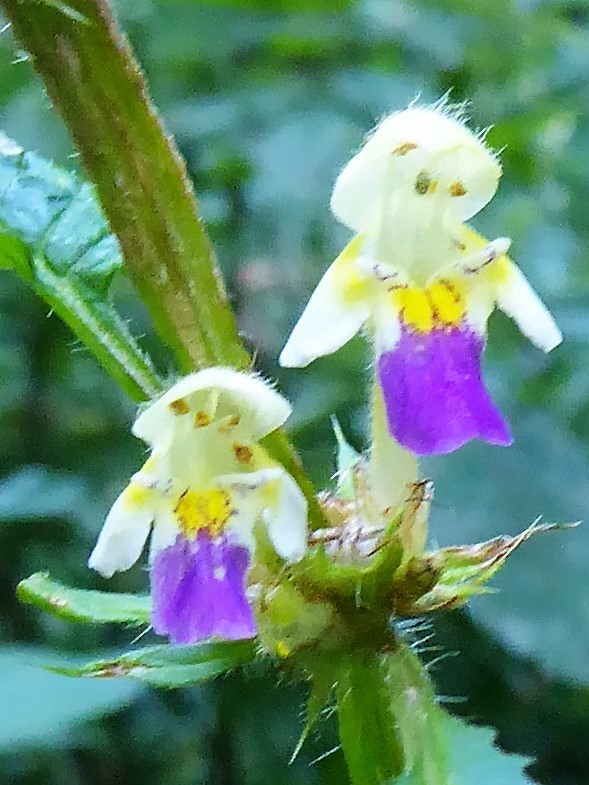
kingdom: Plantae
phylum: Tracheophyta
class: Magnoliopsida
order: Lamiales
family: Lamiaceae
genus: Galeopsis
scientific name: Galeopsis speciosa
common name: Large-flowered hemp-nettle
